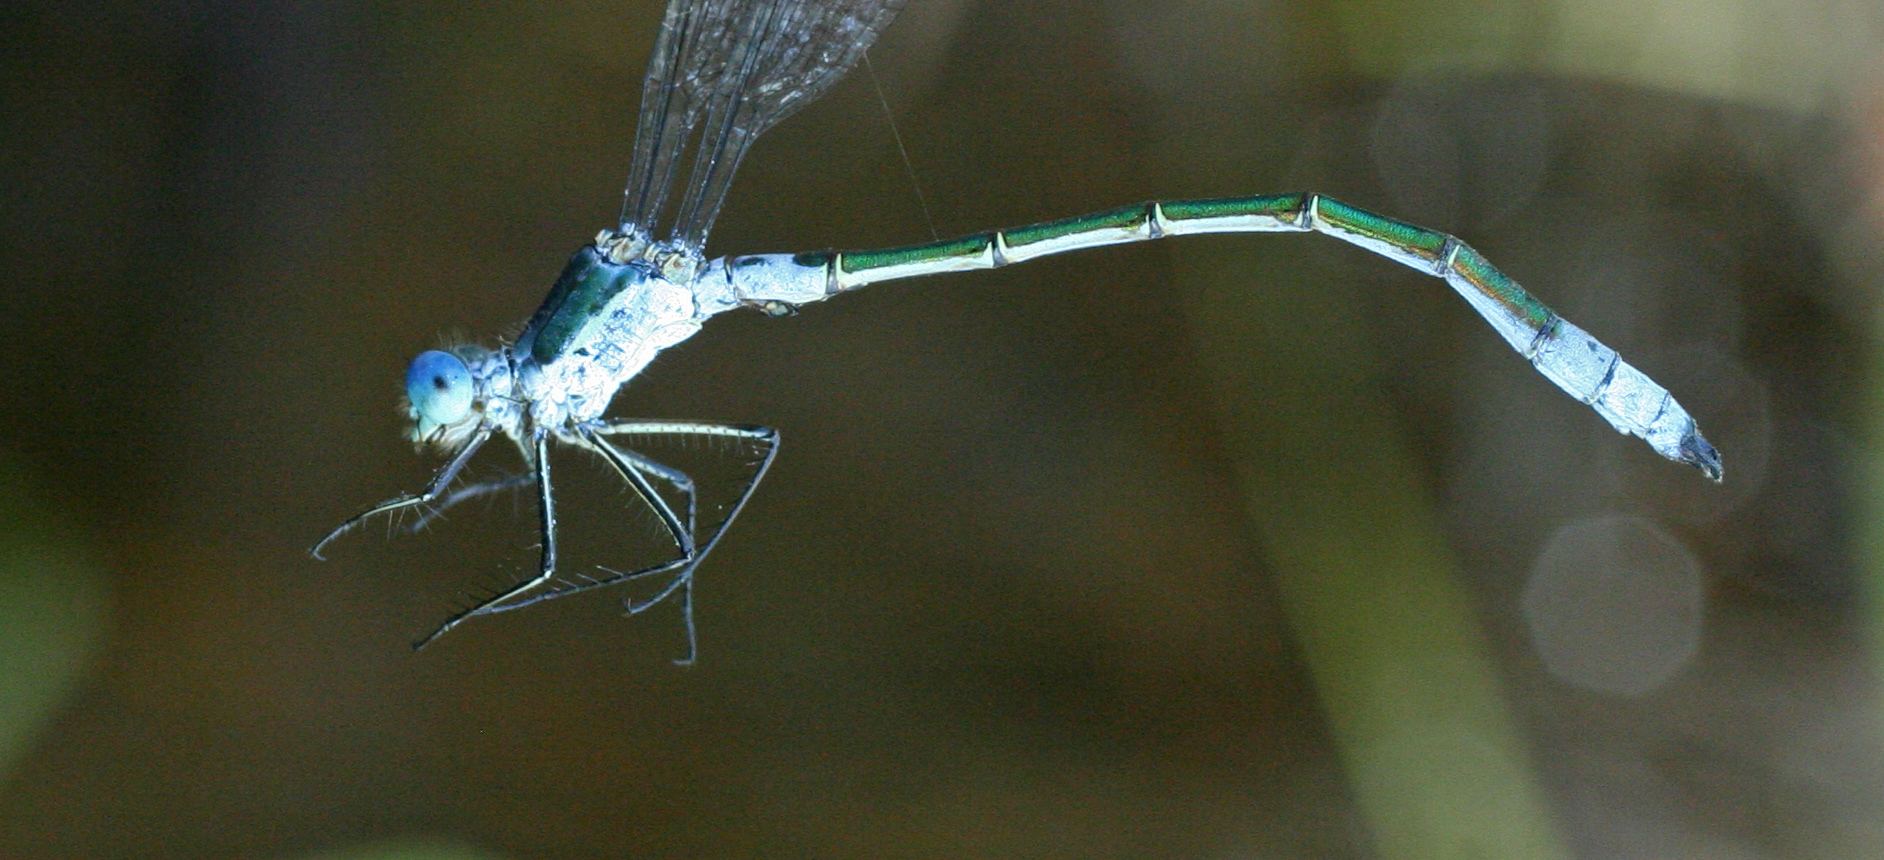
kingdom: Animalia
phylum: Arthropoda
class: Insecta
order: Odonata
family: Lestidae
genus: Lestes
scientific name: Lestes dryas
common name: Scarce emerald damselfly
